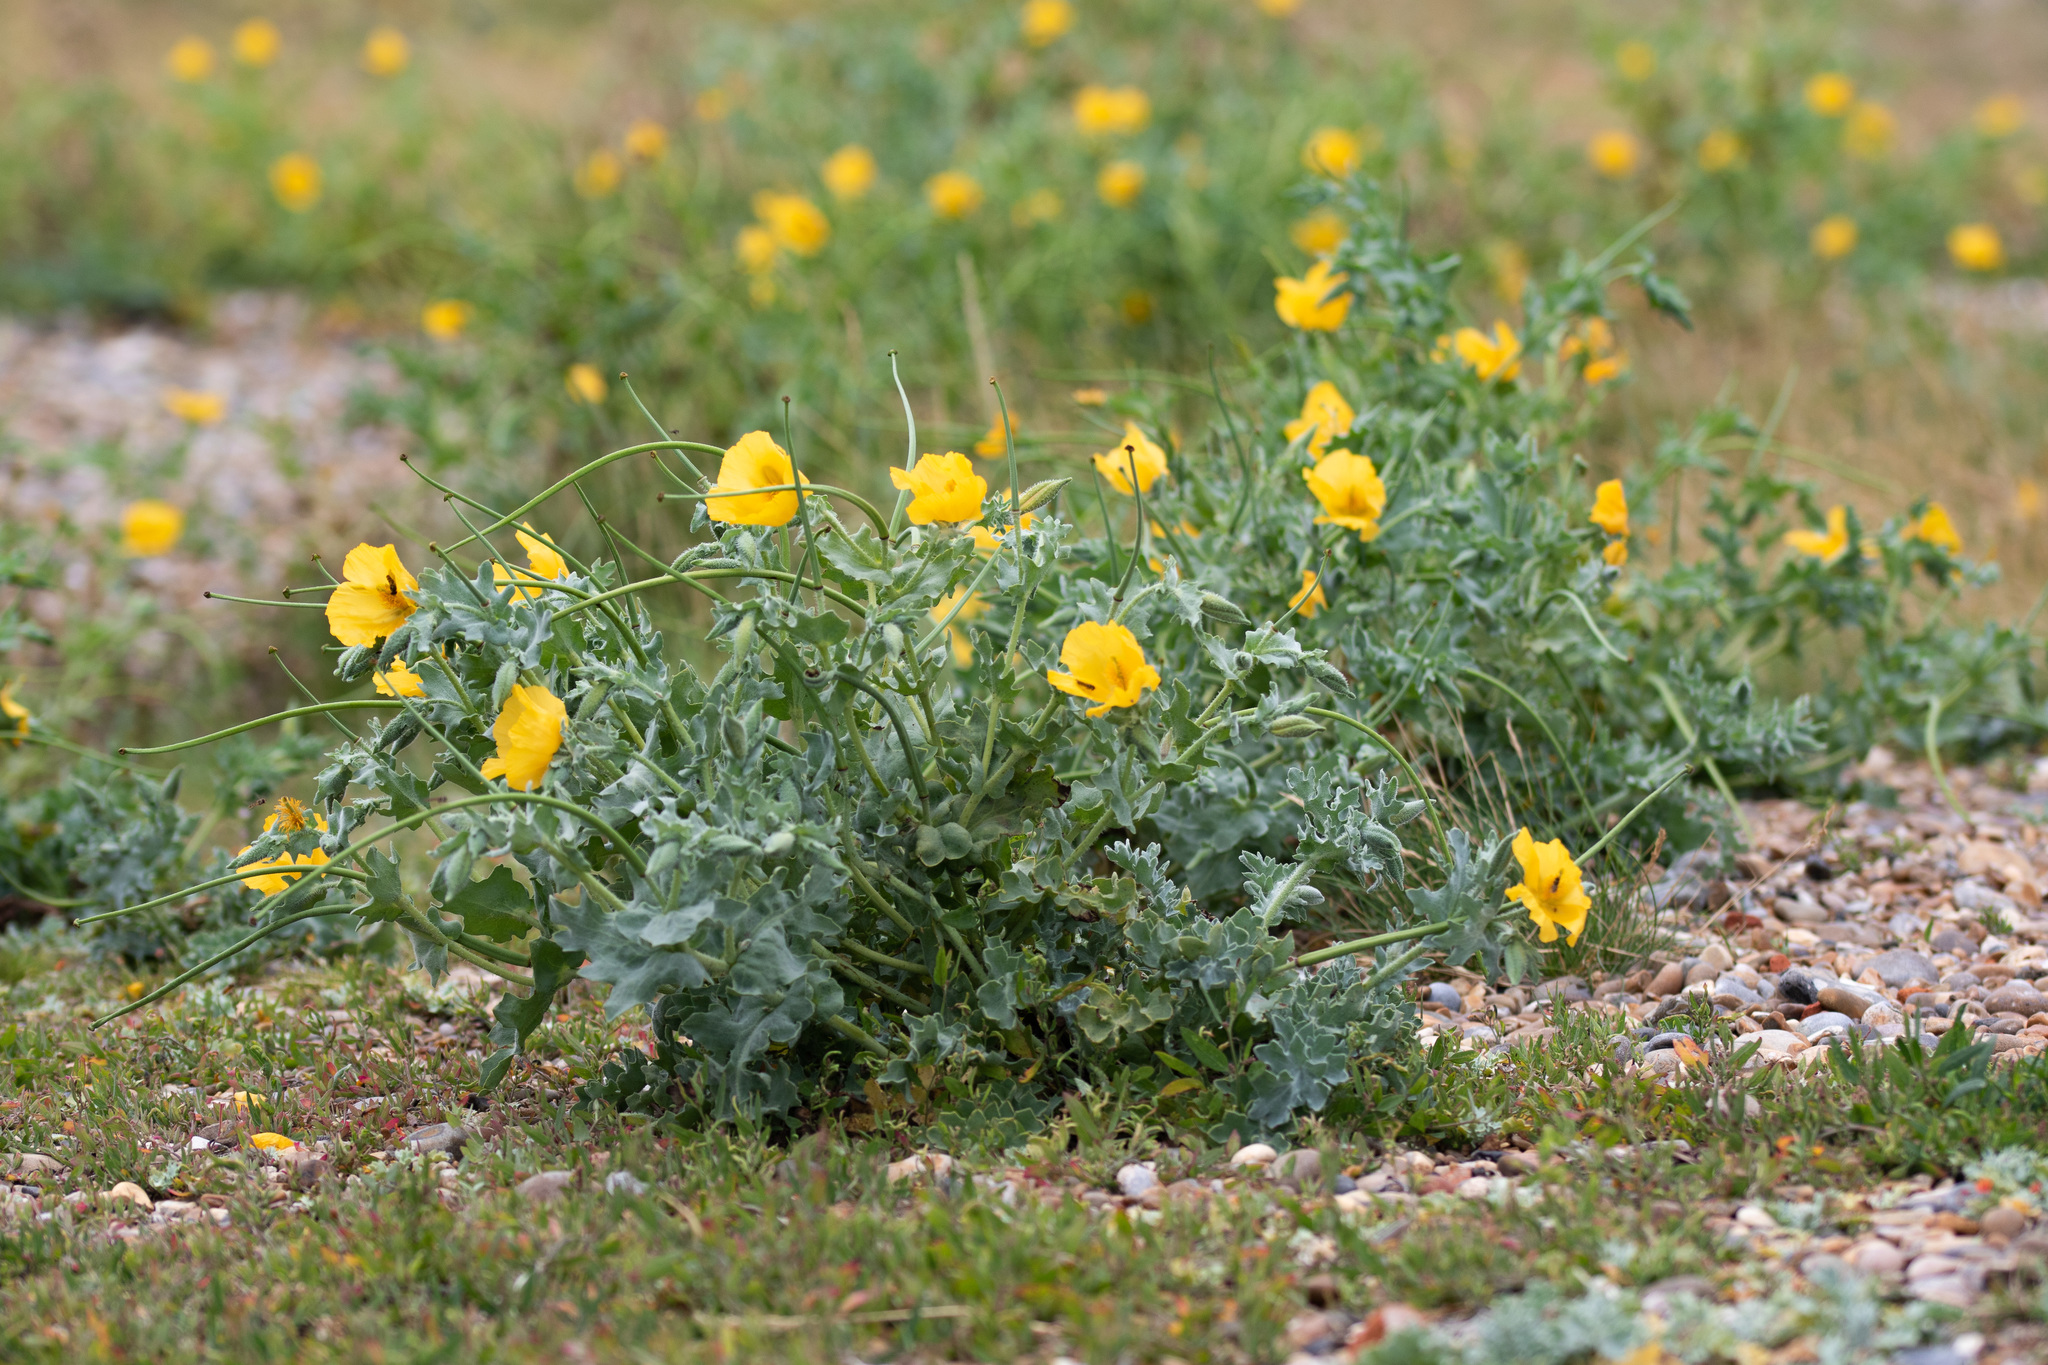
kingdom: Plantae
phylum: Tracheophyta
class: Magnoliopsida
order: Ranunculales
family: Papaveraceae
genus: Glaucium
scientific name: Glaucium flavum
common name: Yellow horned-poppy
